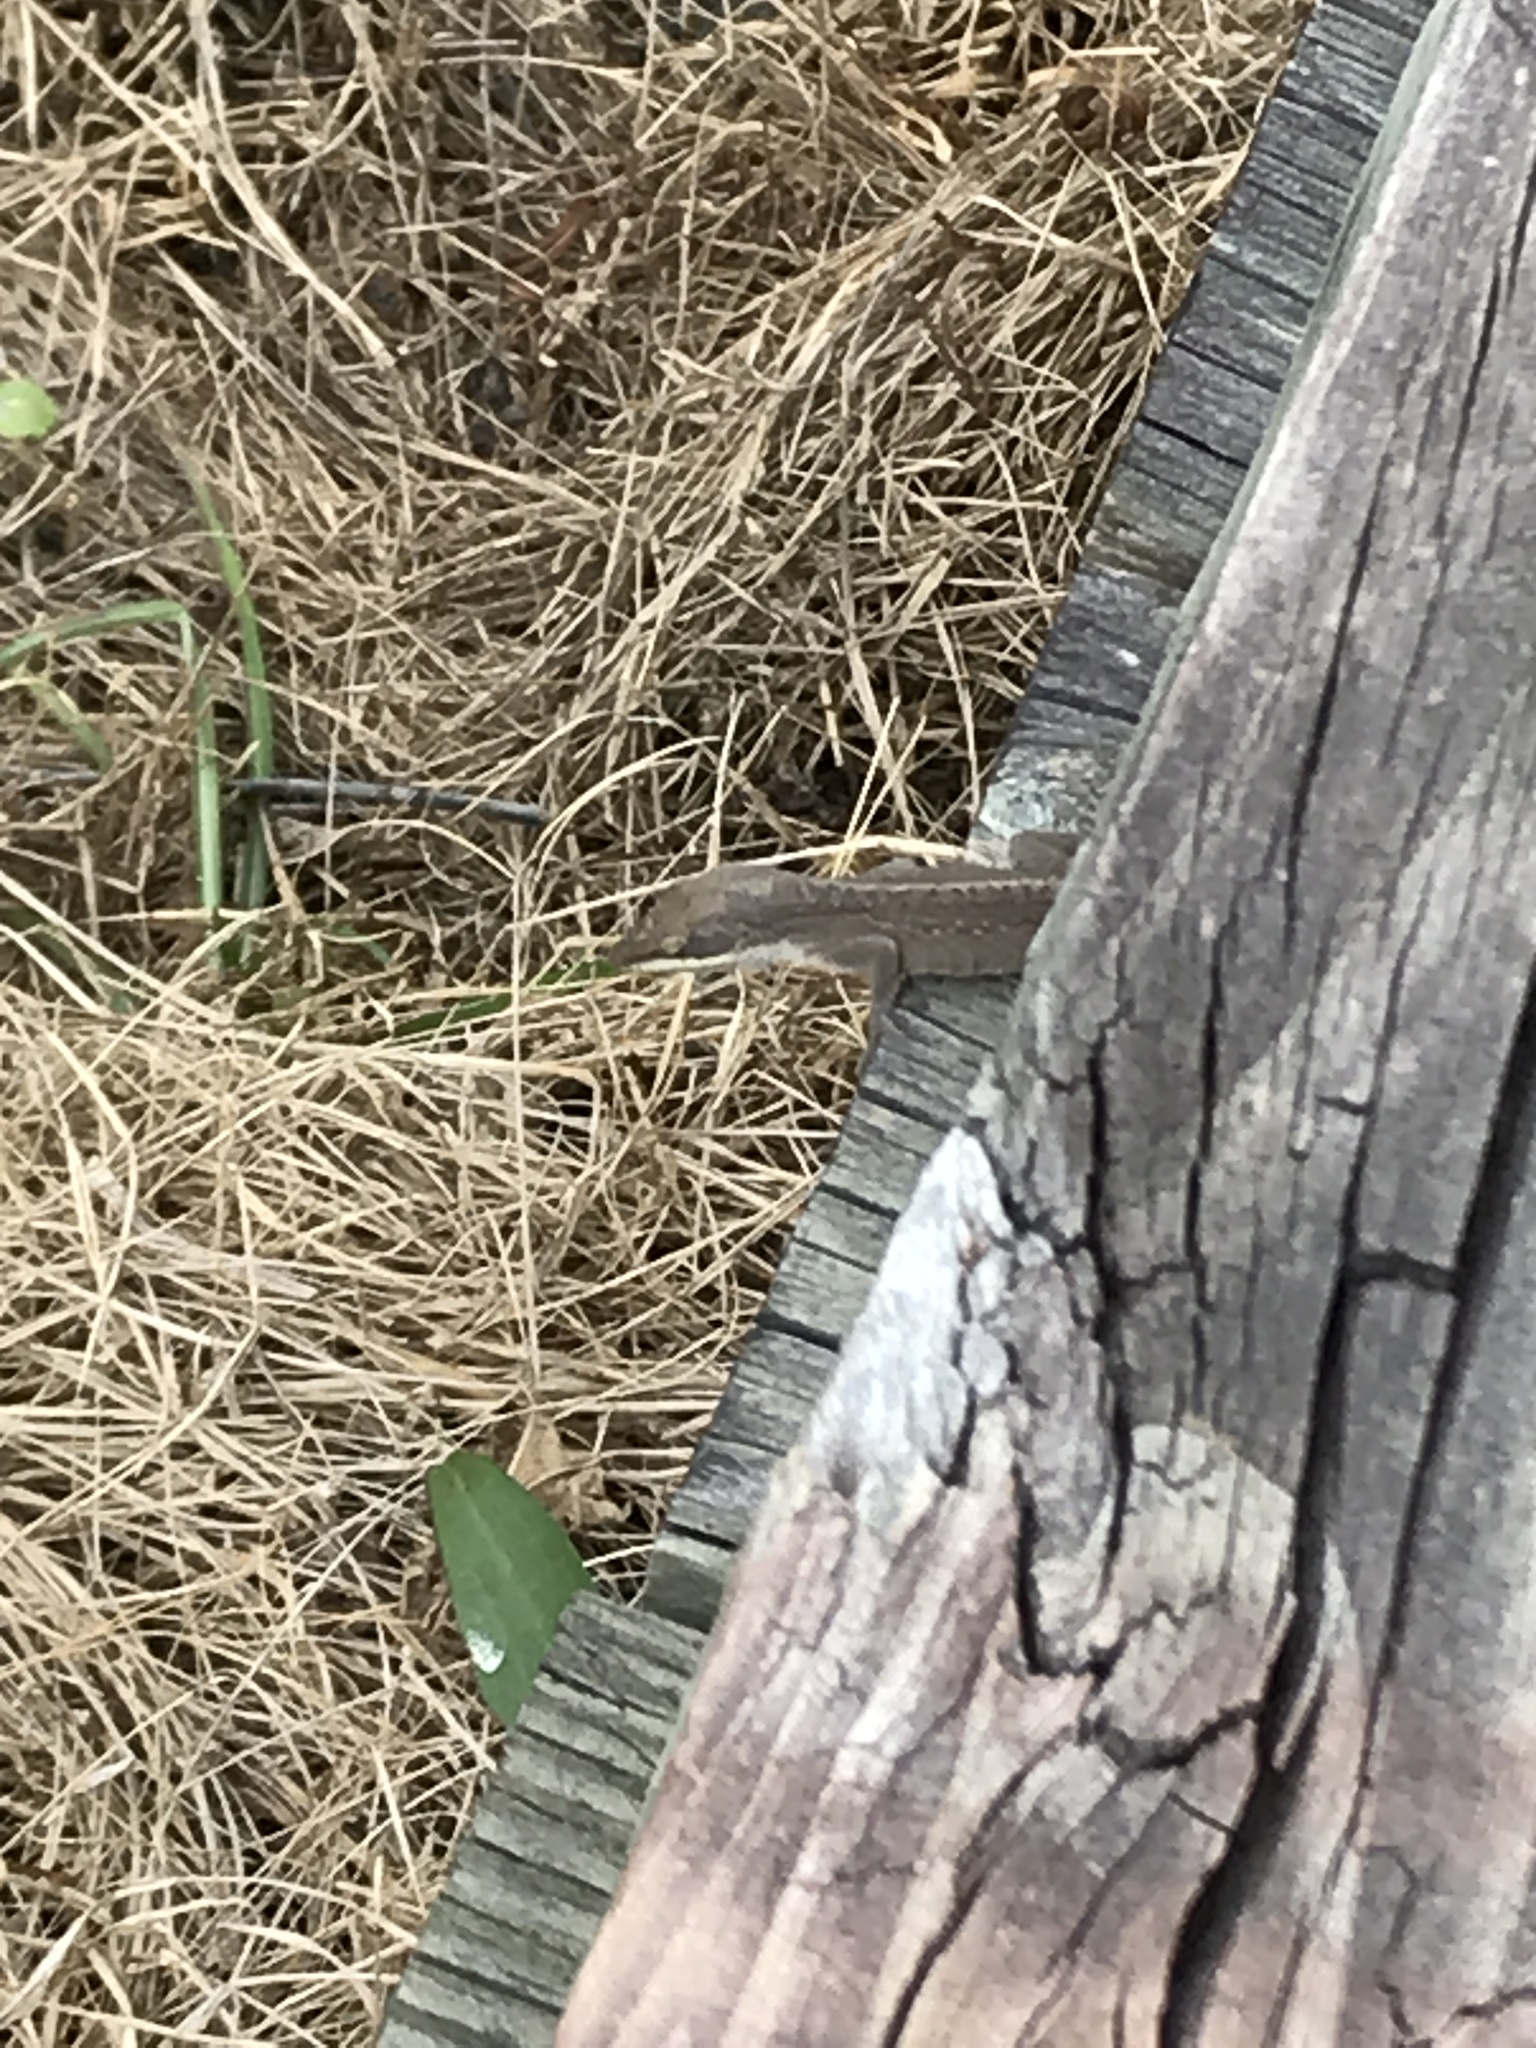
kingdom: Animalia
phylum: Chordata
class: Squamata
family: Dactyloidae
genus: Anolis
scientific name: Anolis carolinensis
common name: Green anole
